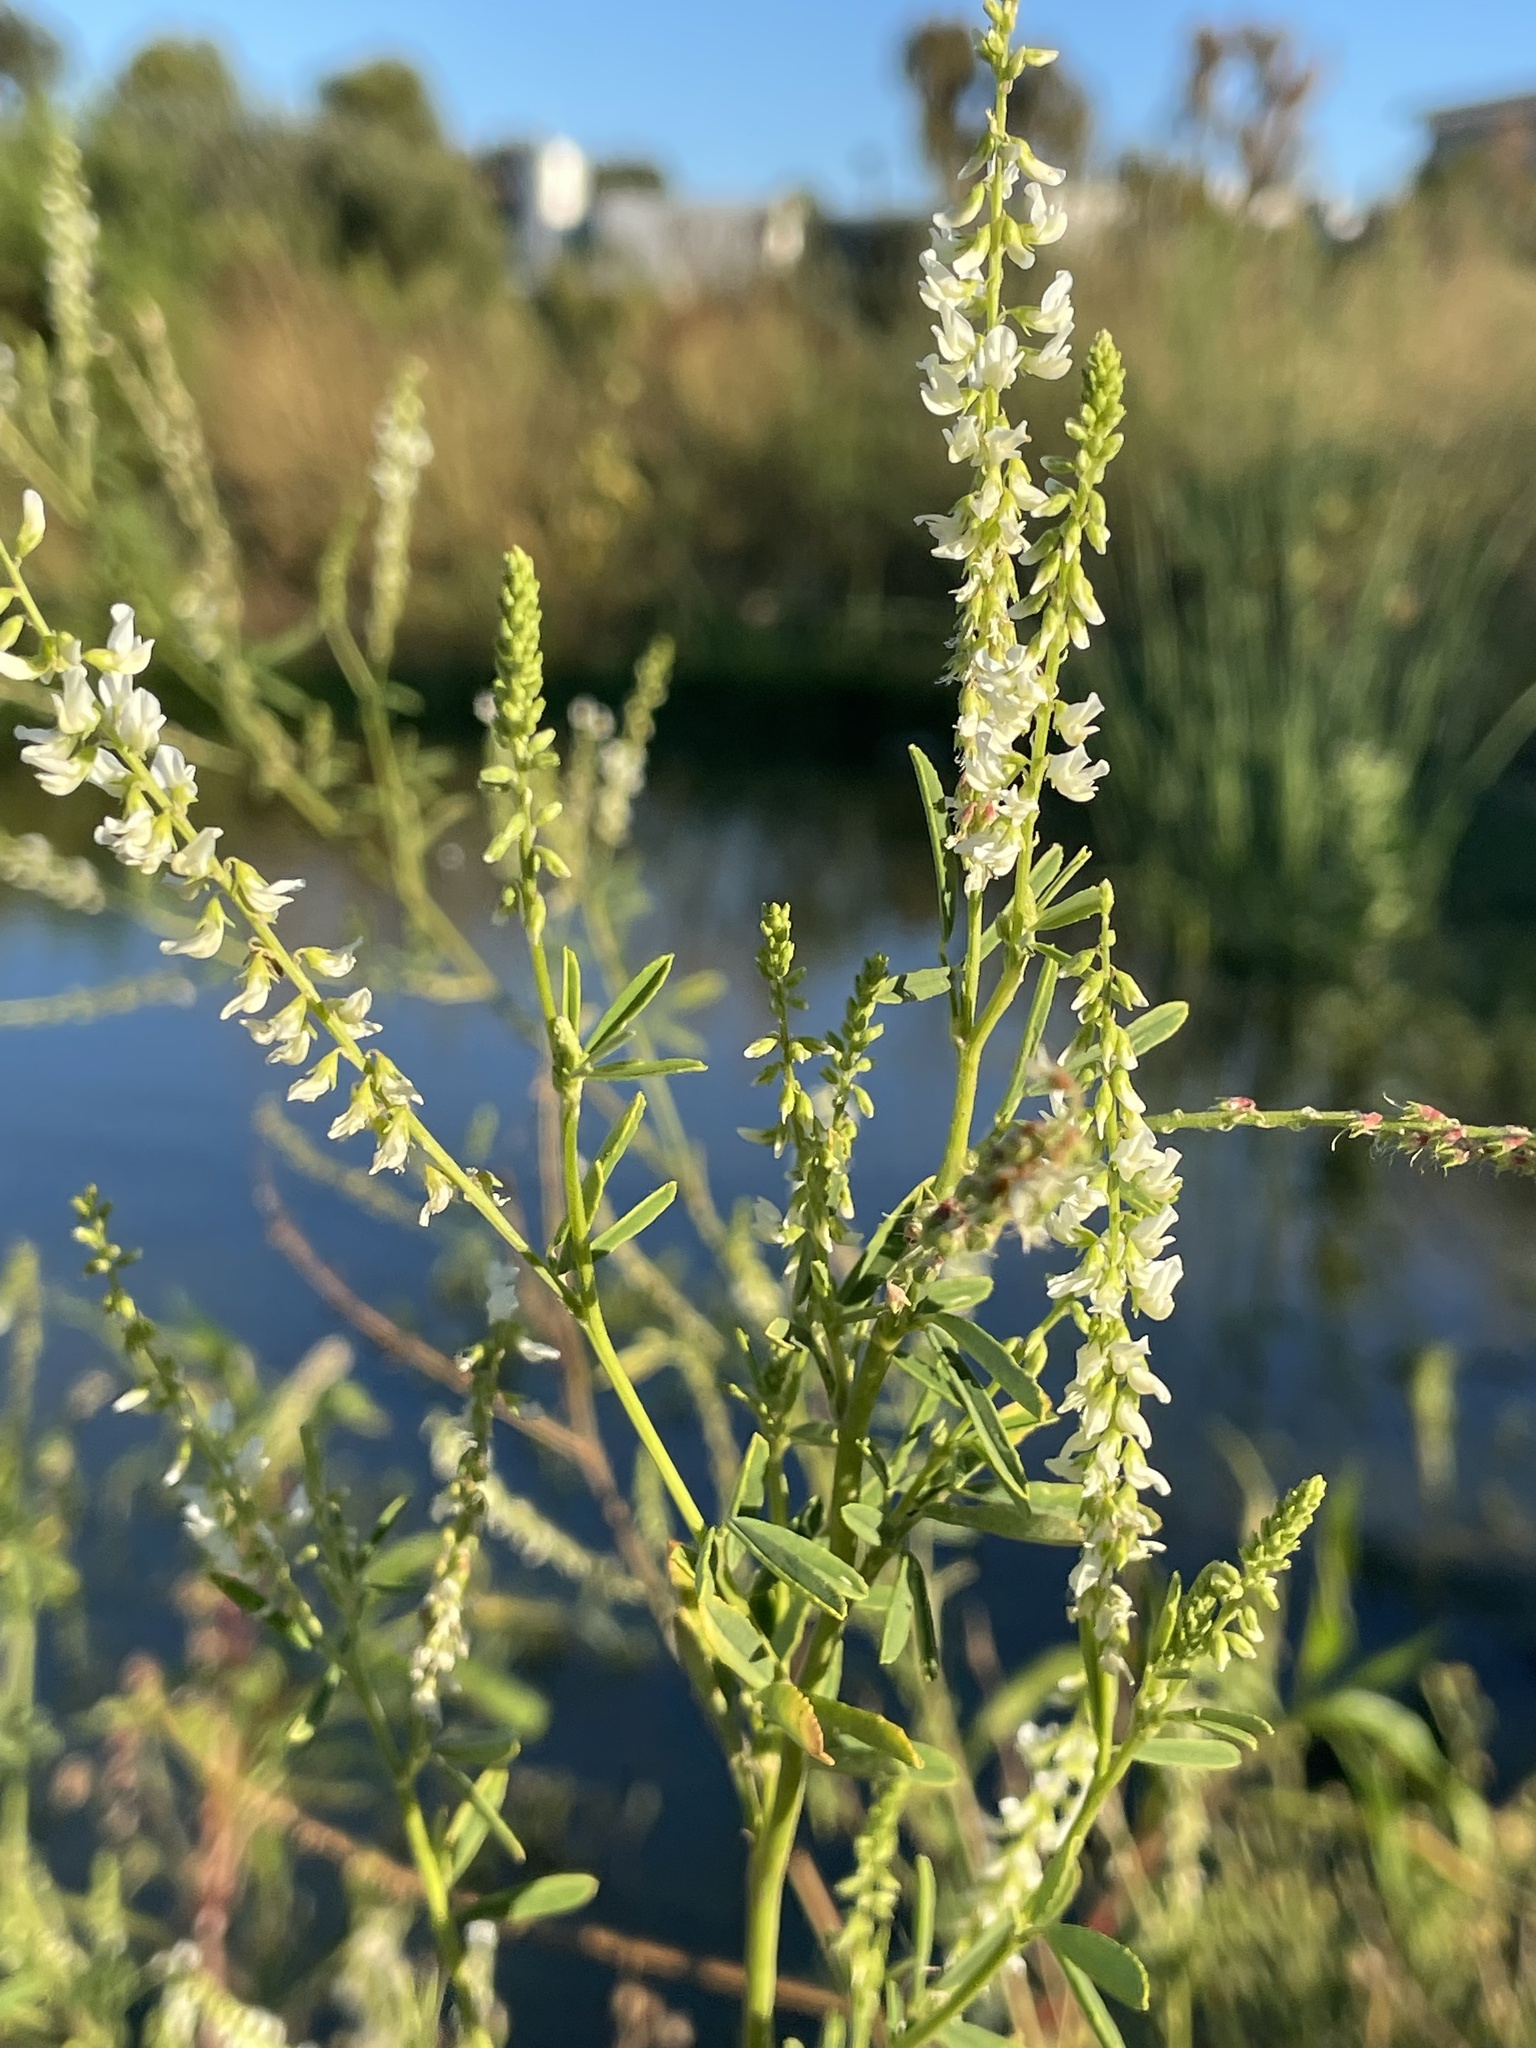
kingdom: Plantae
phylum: Tracheophyta
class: Magnoliopsida
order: Fabales
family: Fabaceae
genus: Melilotus
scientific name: Melilotus albus
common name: White melilot
